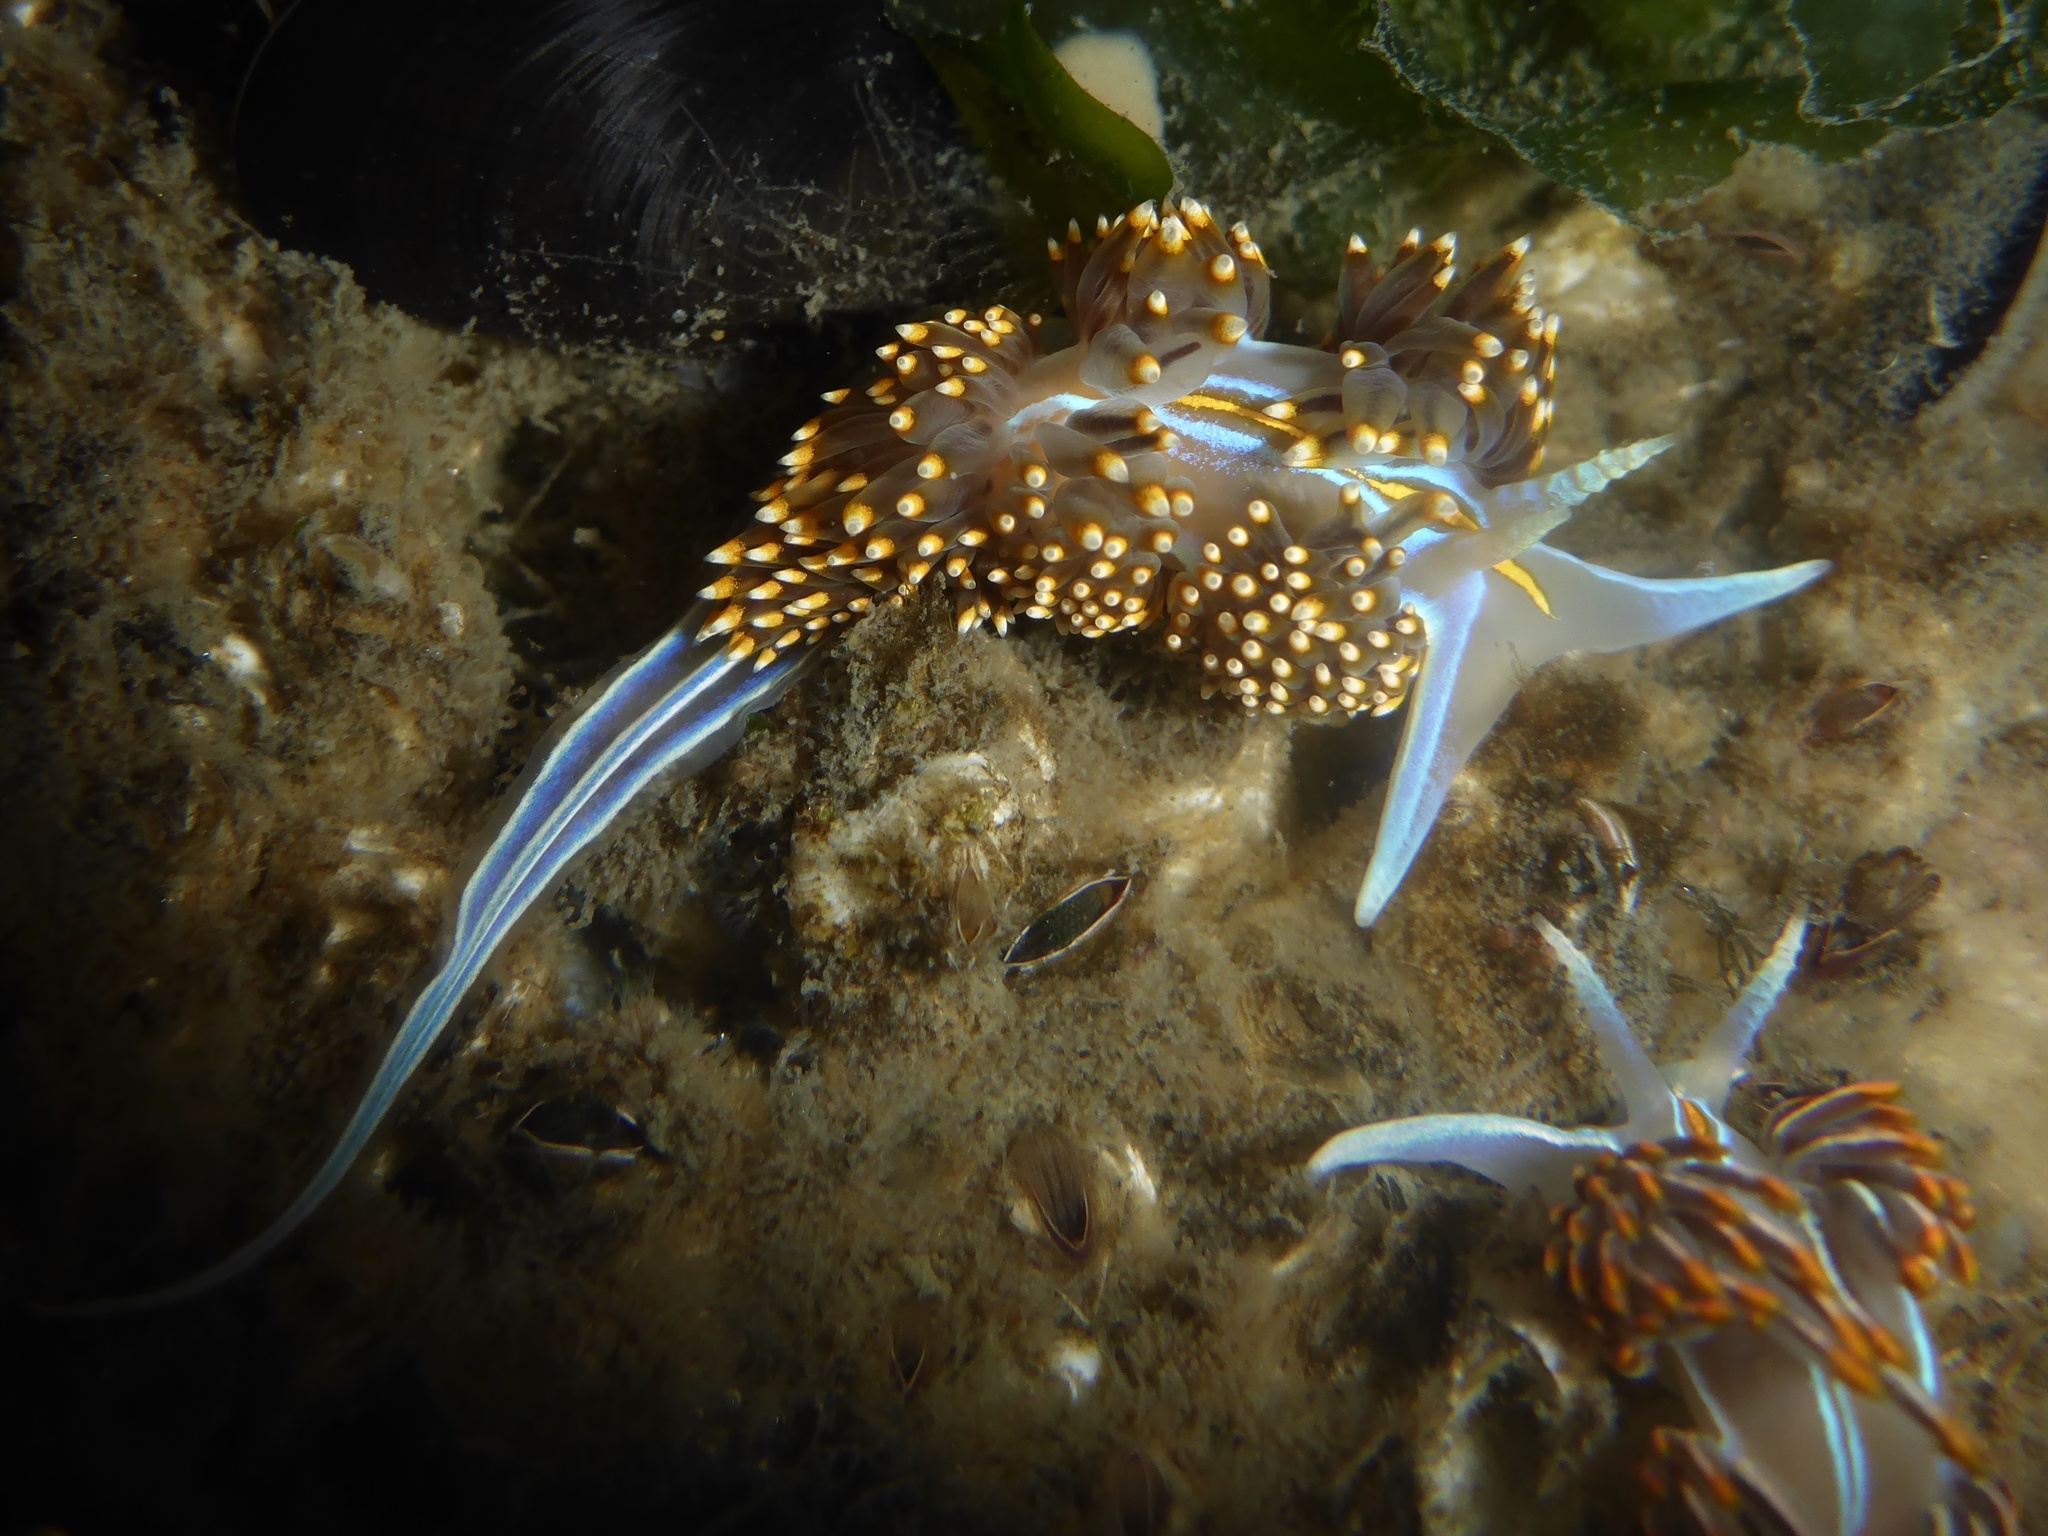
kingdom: Animalia
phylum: Mollusca
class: Gastropoda
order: Nudibranchia
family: Myrrhinidae
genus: Hermissenda
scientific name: Hermissenda opalescens
